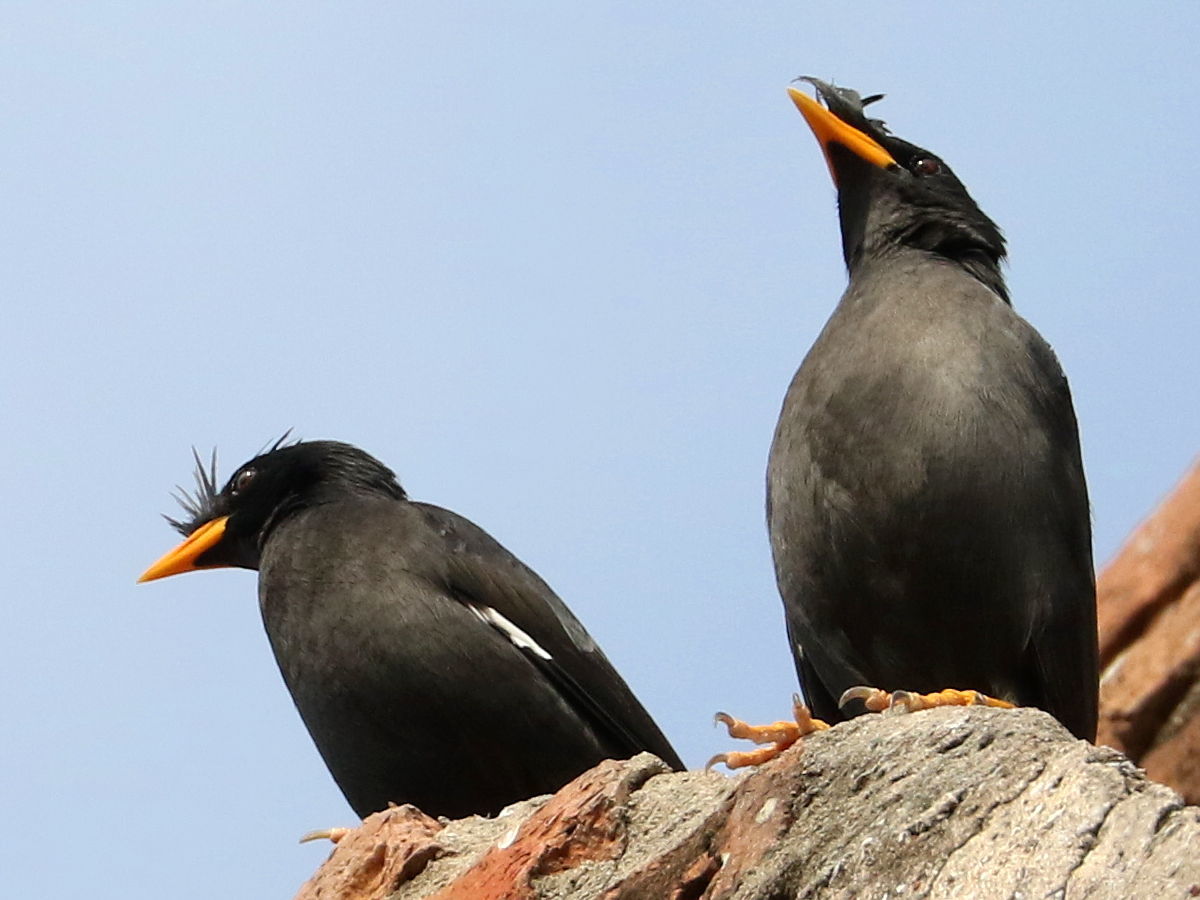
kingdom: Animalia
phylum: Chordata
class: Aves
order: Passeriformes
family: Sturnidae
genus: Acridotheres
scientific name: Acridotheres grandis
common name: Great myna
